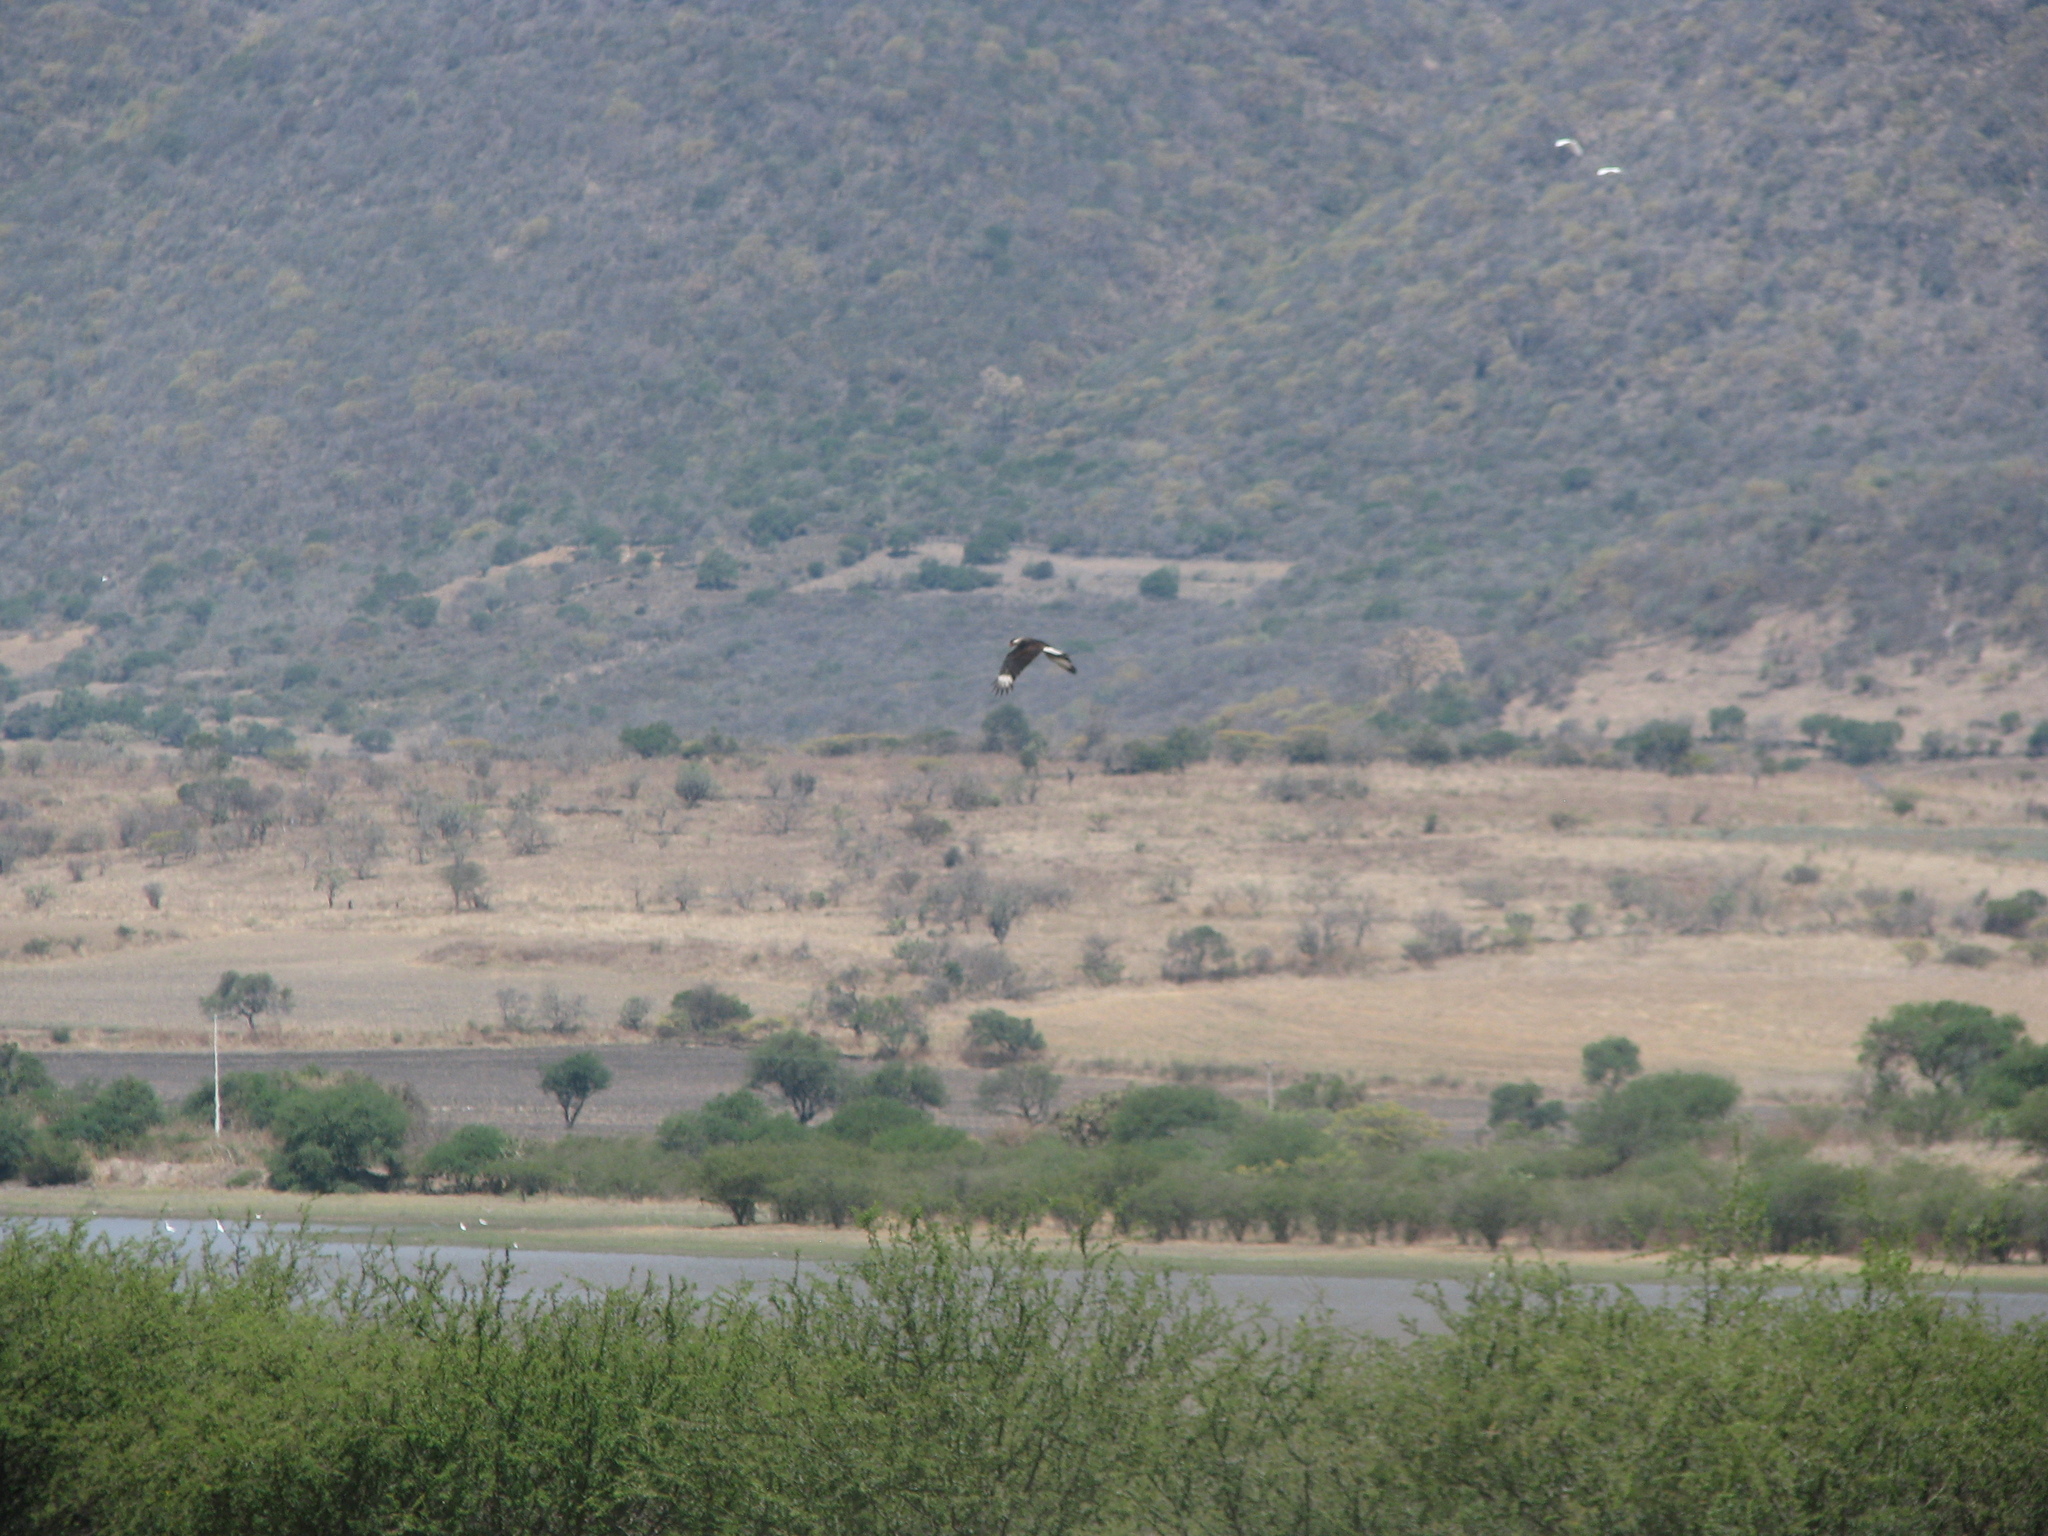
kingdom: Animalia
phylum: Chordata
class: Aves
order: Falconiformes
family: Falconidae
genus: Caracara
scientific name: Caracara plancus
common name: Southern caracara
